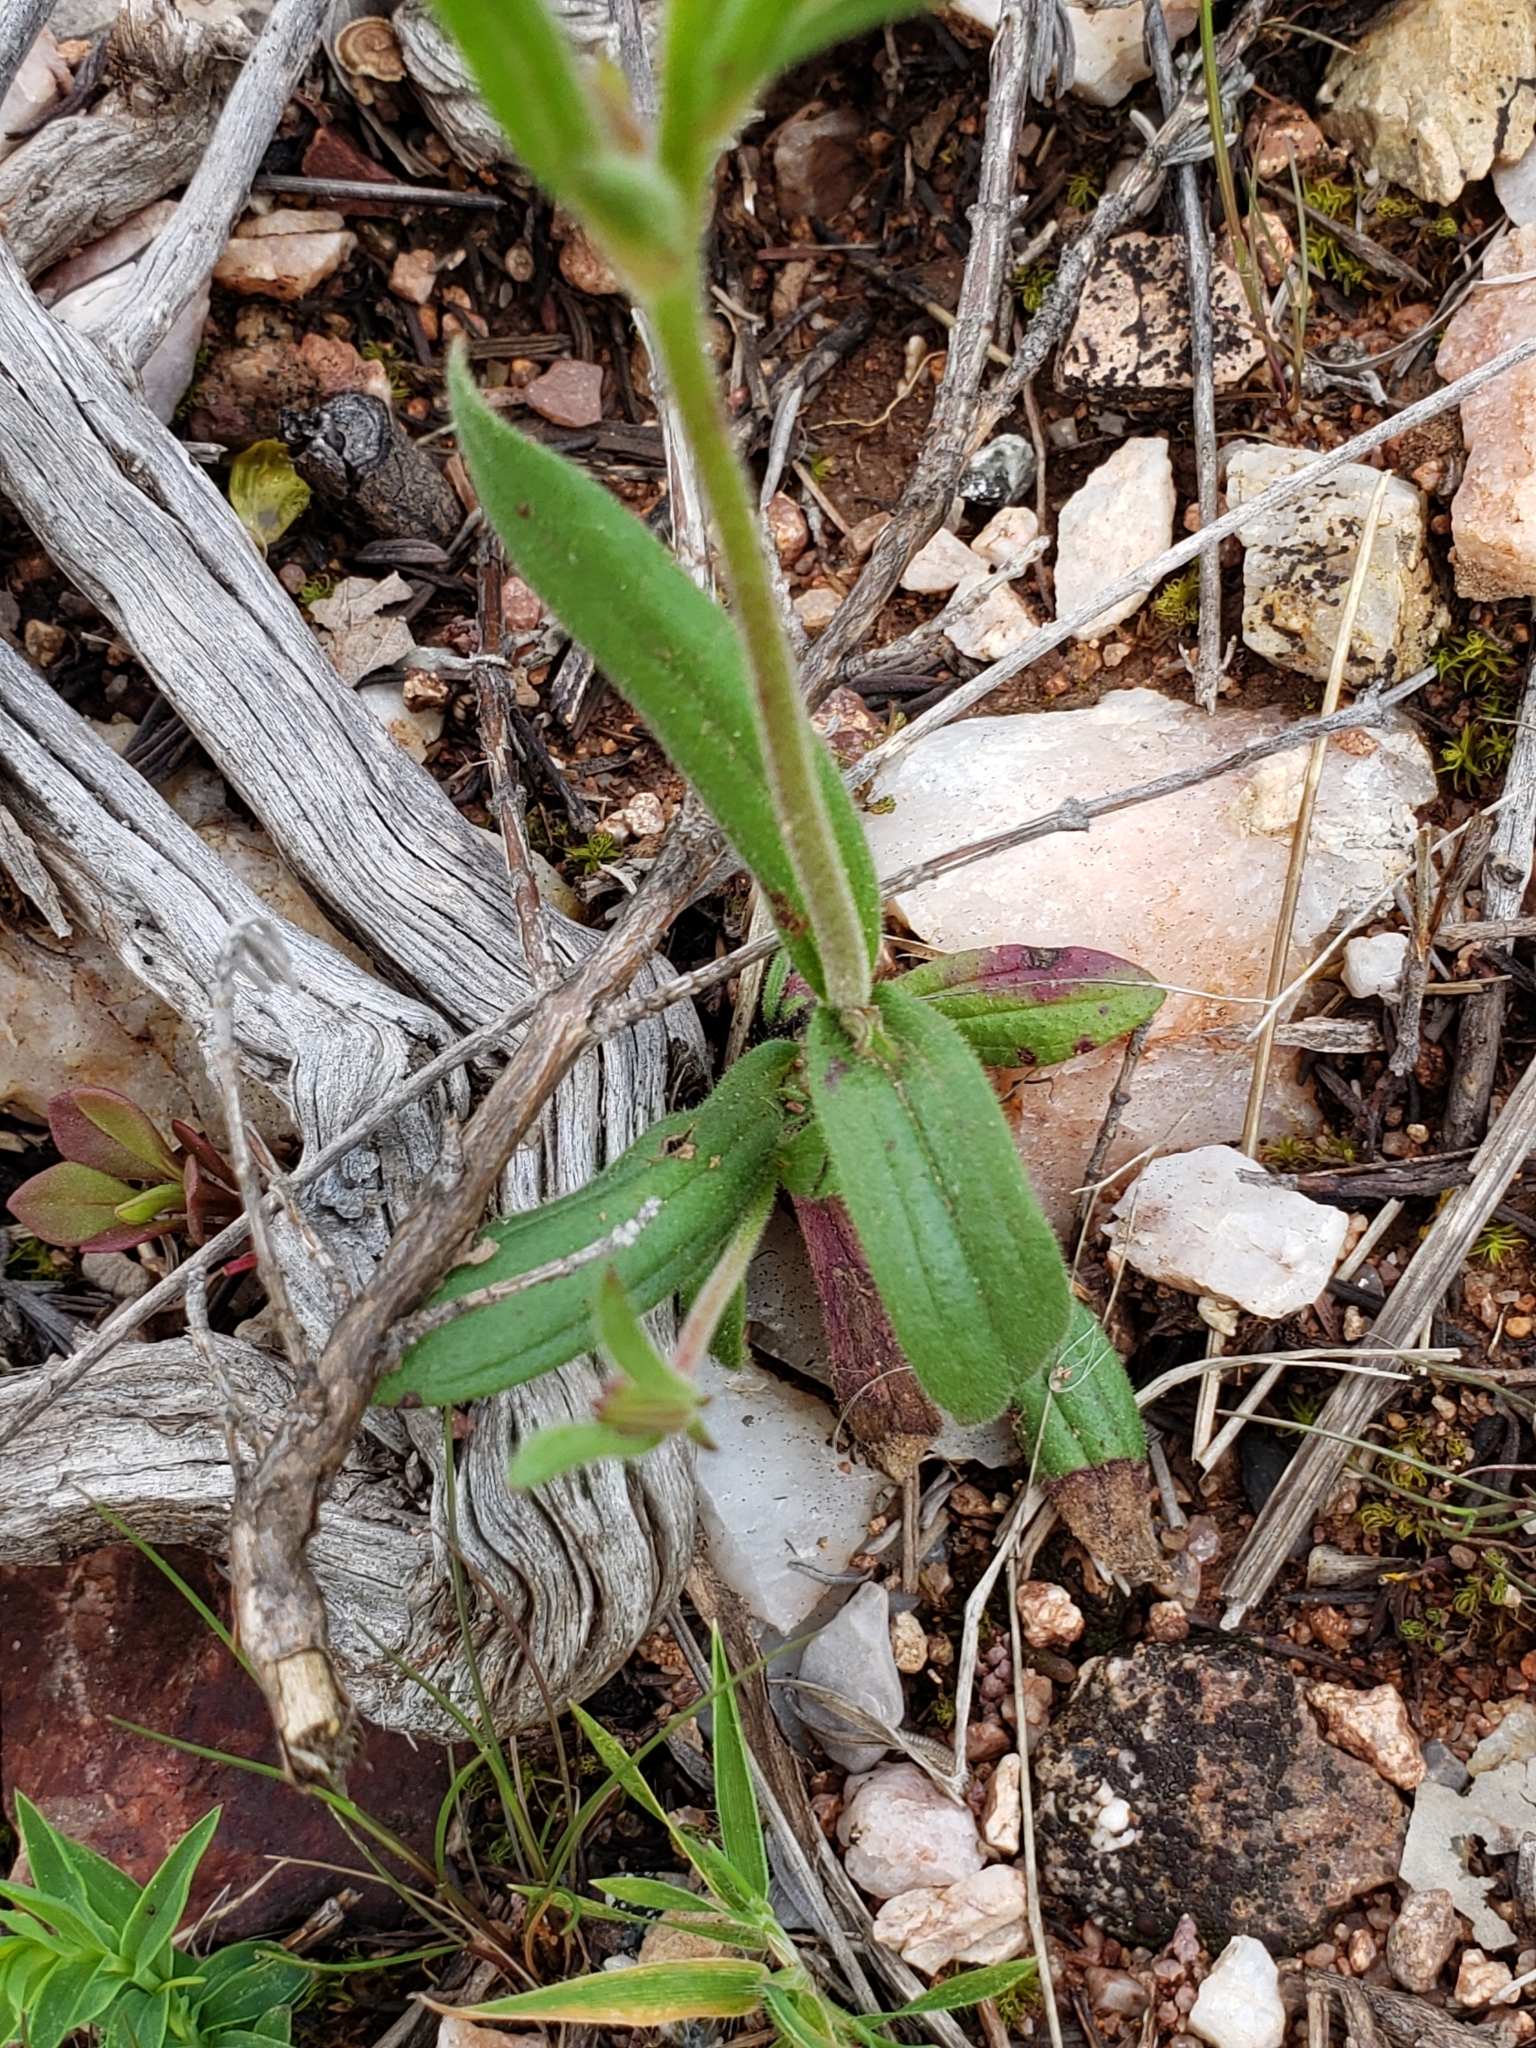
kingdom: Plantae
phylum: Tracheophyta
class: Magnoliopsida
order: Malvales
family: Cistaceae
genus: Tuberaria
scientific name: Tuberaria guttata
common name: Spotted rock-rose
